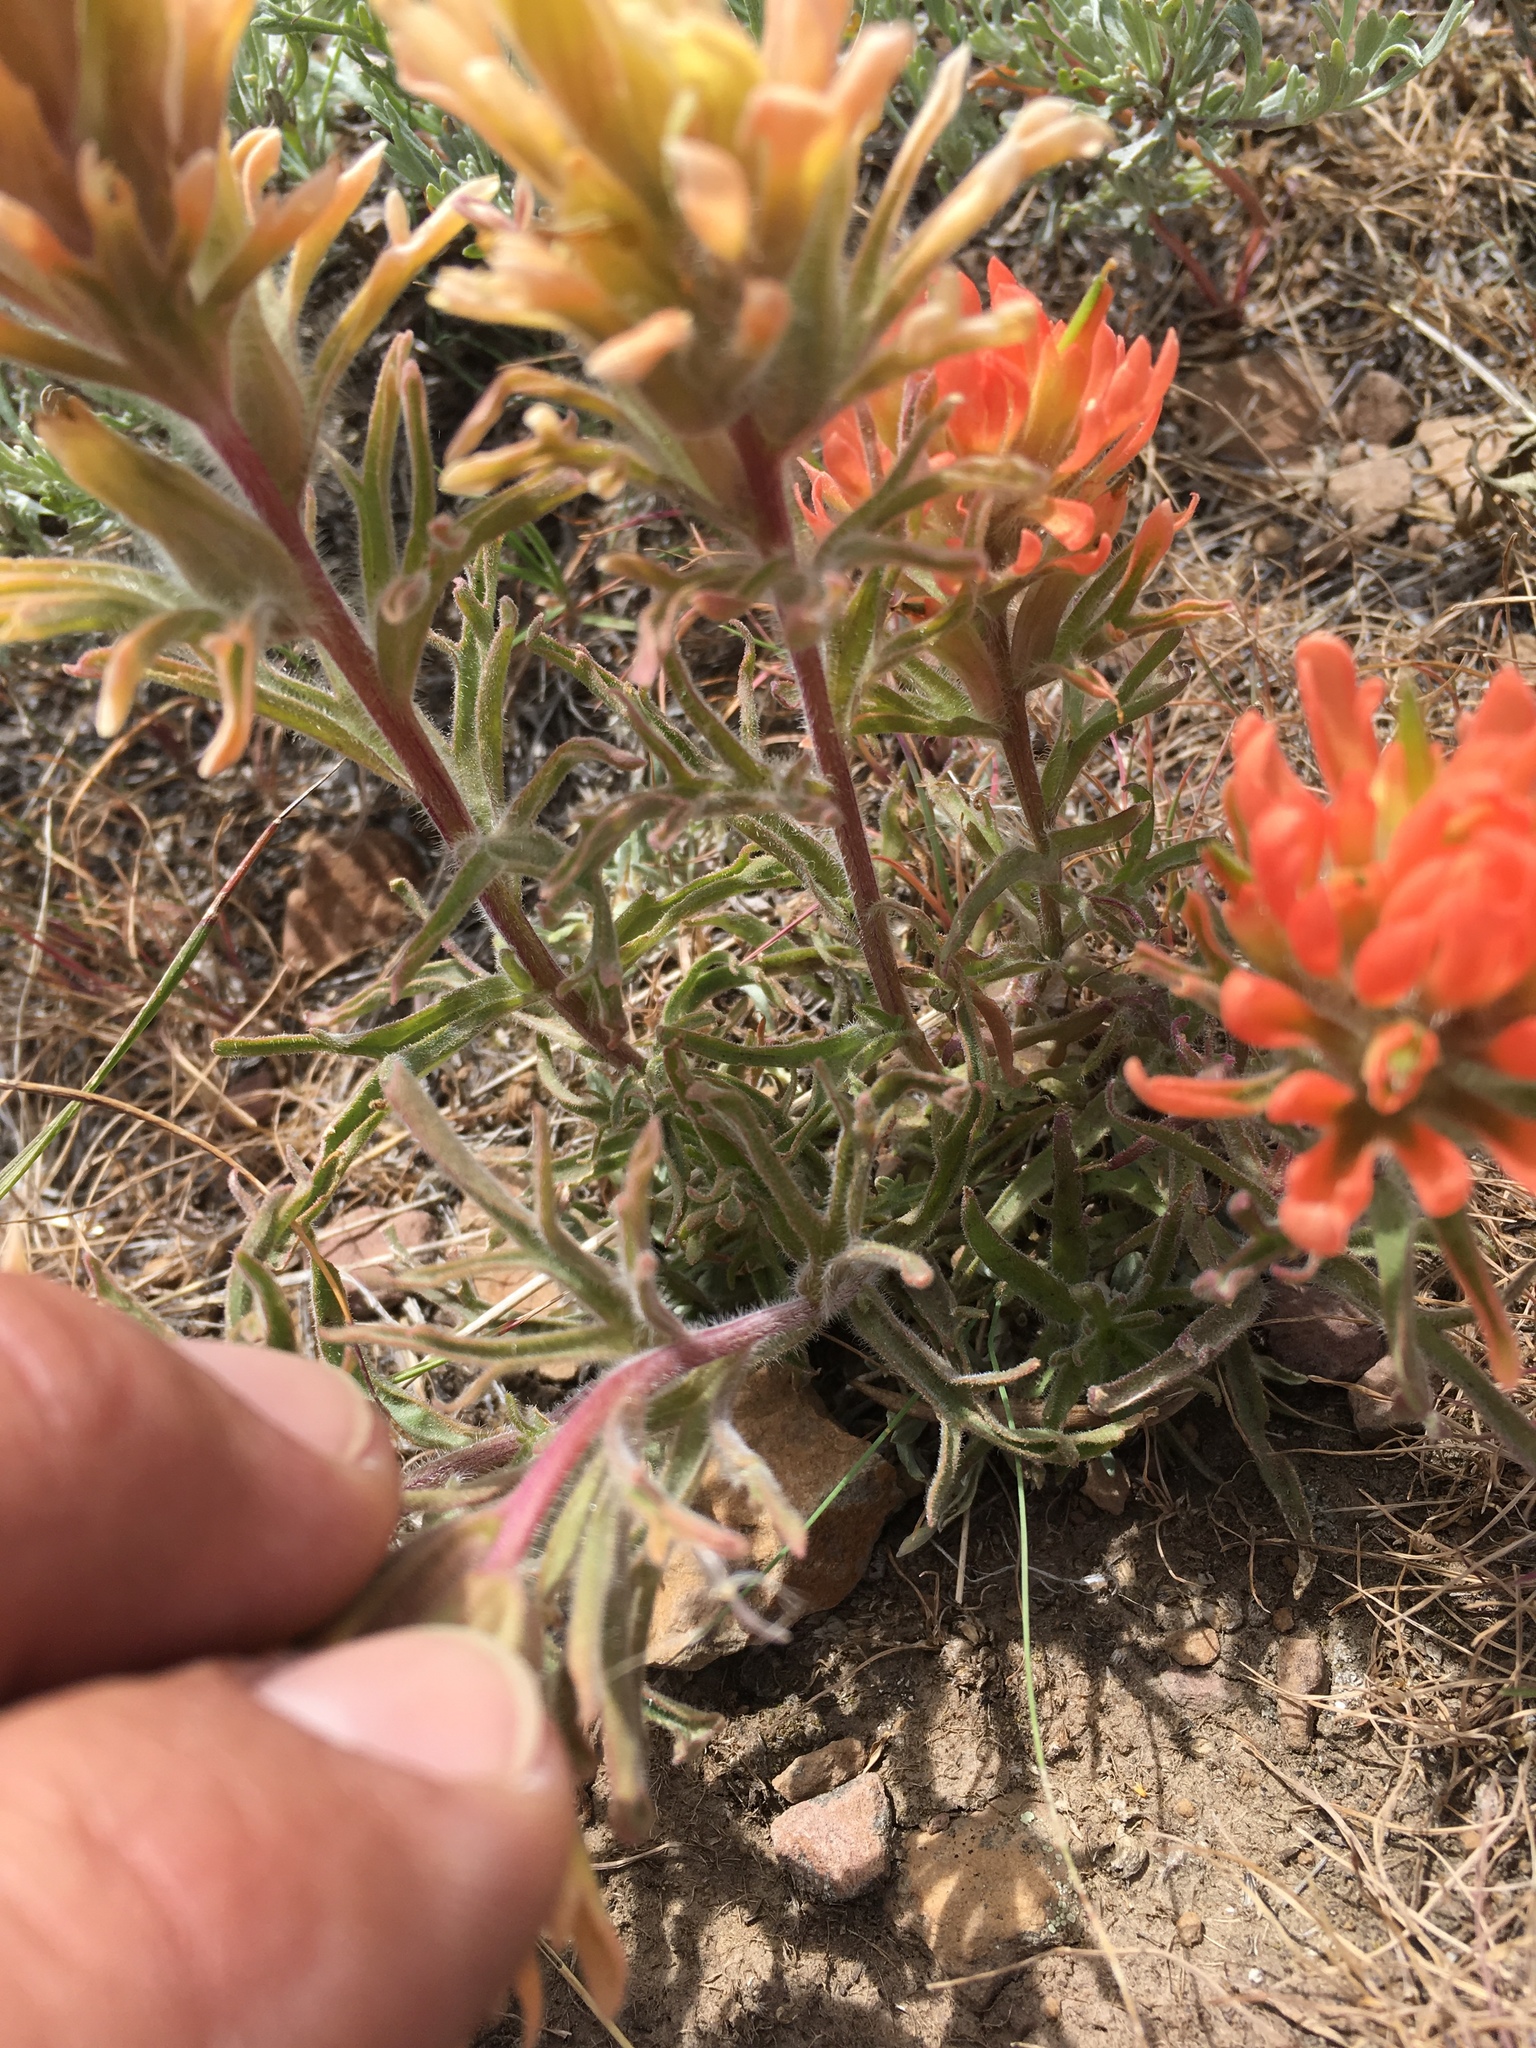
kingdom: Plantae
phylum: Tracheophyta
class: Magnoliopsida
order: Lamiales
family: Orobanchaceae
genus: Castilleja
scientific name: Castilleja chromosa
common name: Desert paintbrush
